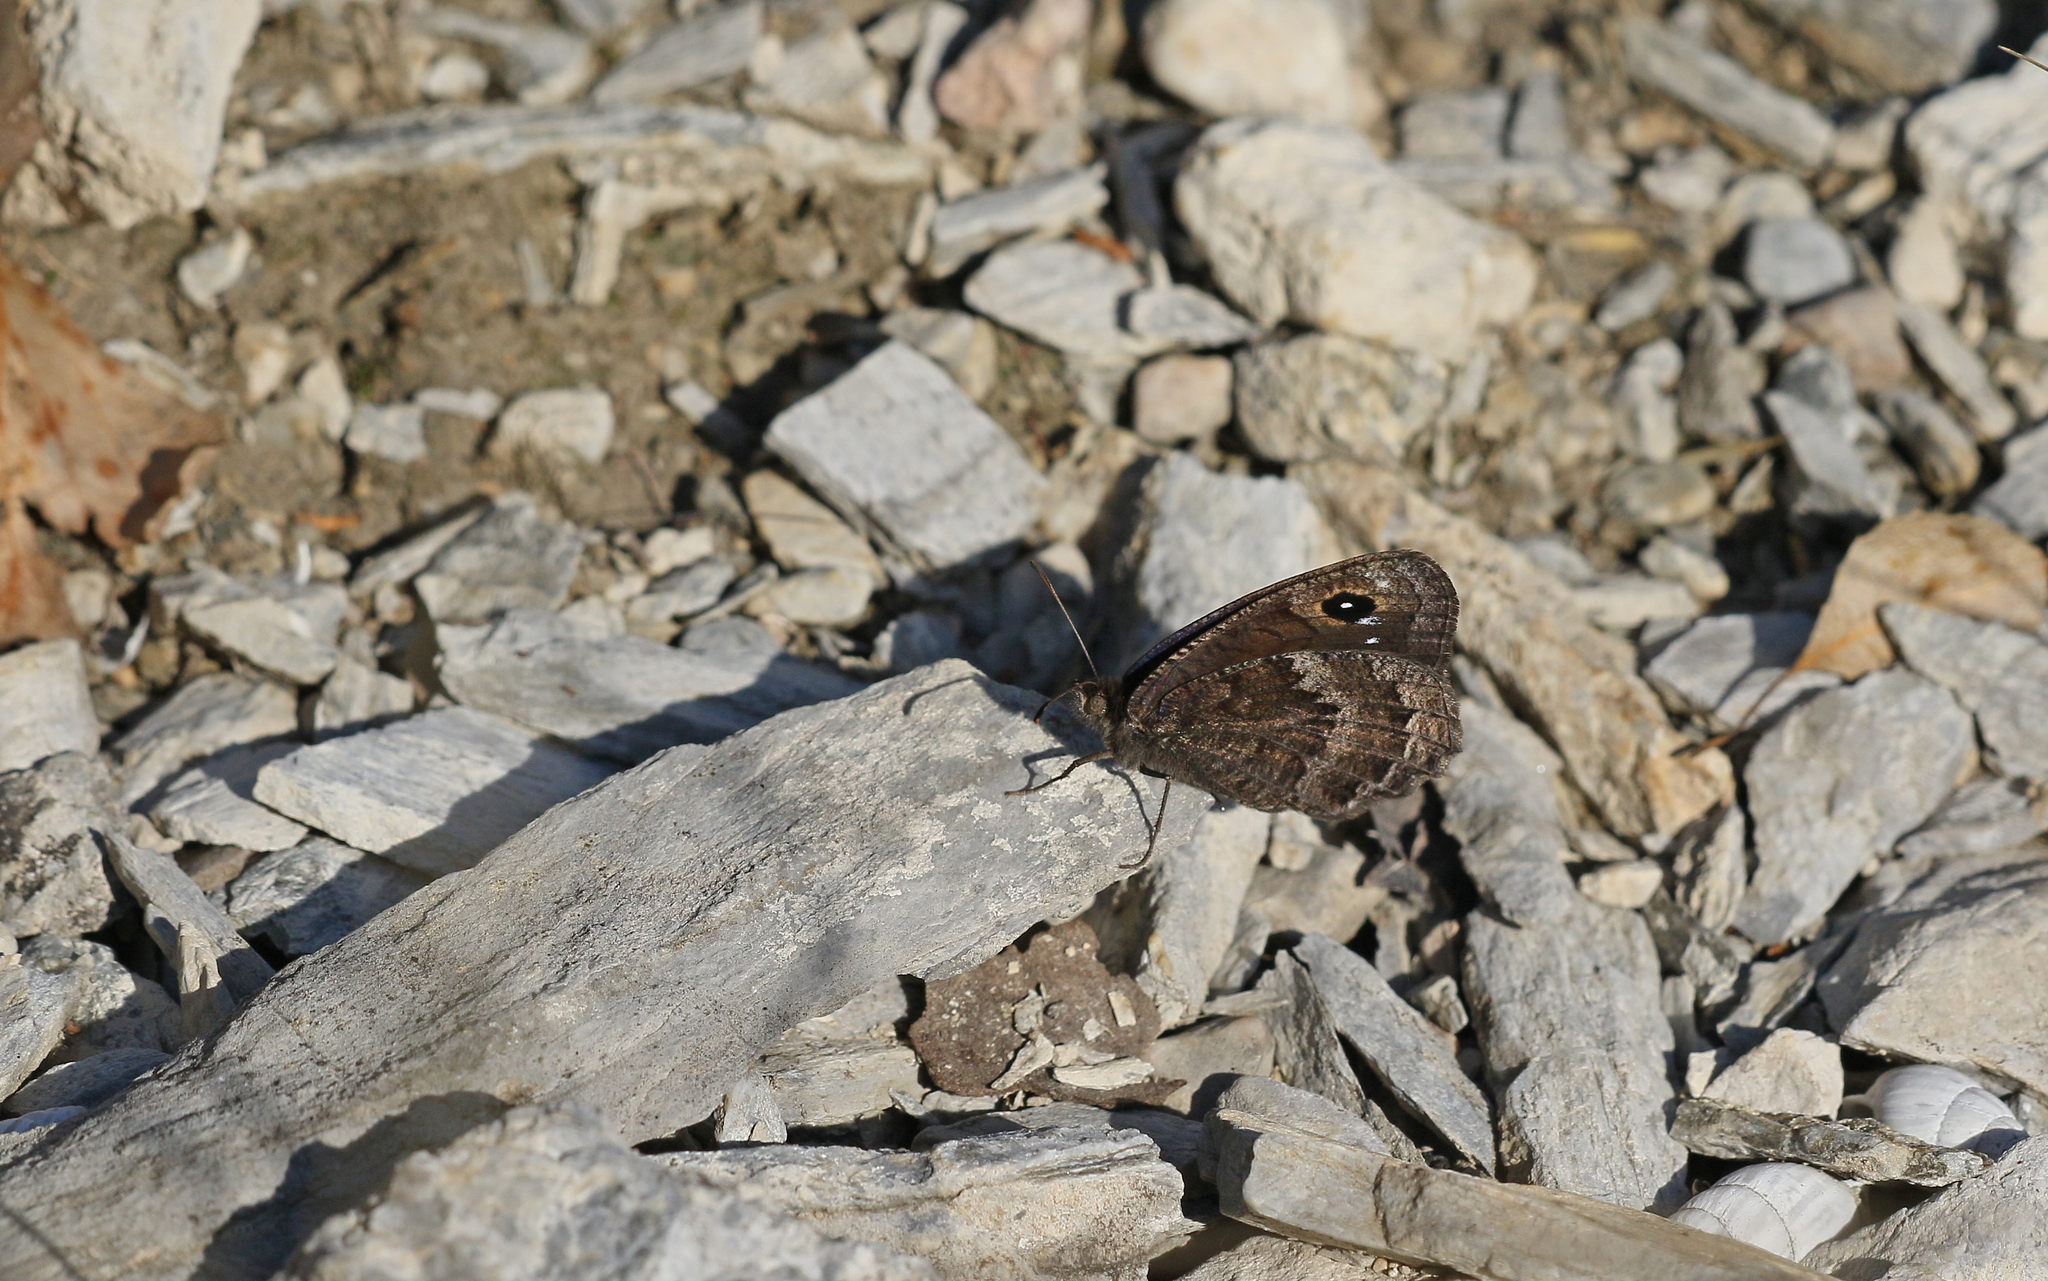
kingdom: Animalia
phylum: Arthropoda
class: Insecta
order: Lepidoptera
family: Nymphalidae
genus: Satyrus
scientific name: Satyrus actaea
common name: Black satyr
